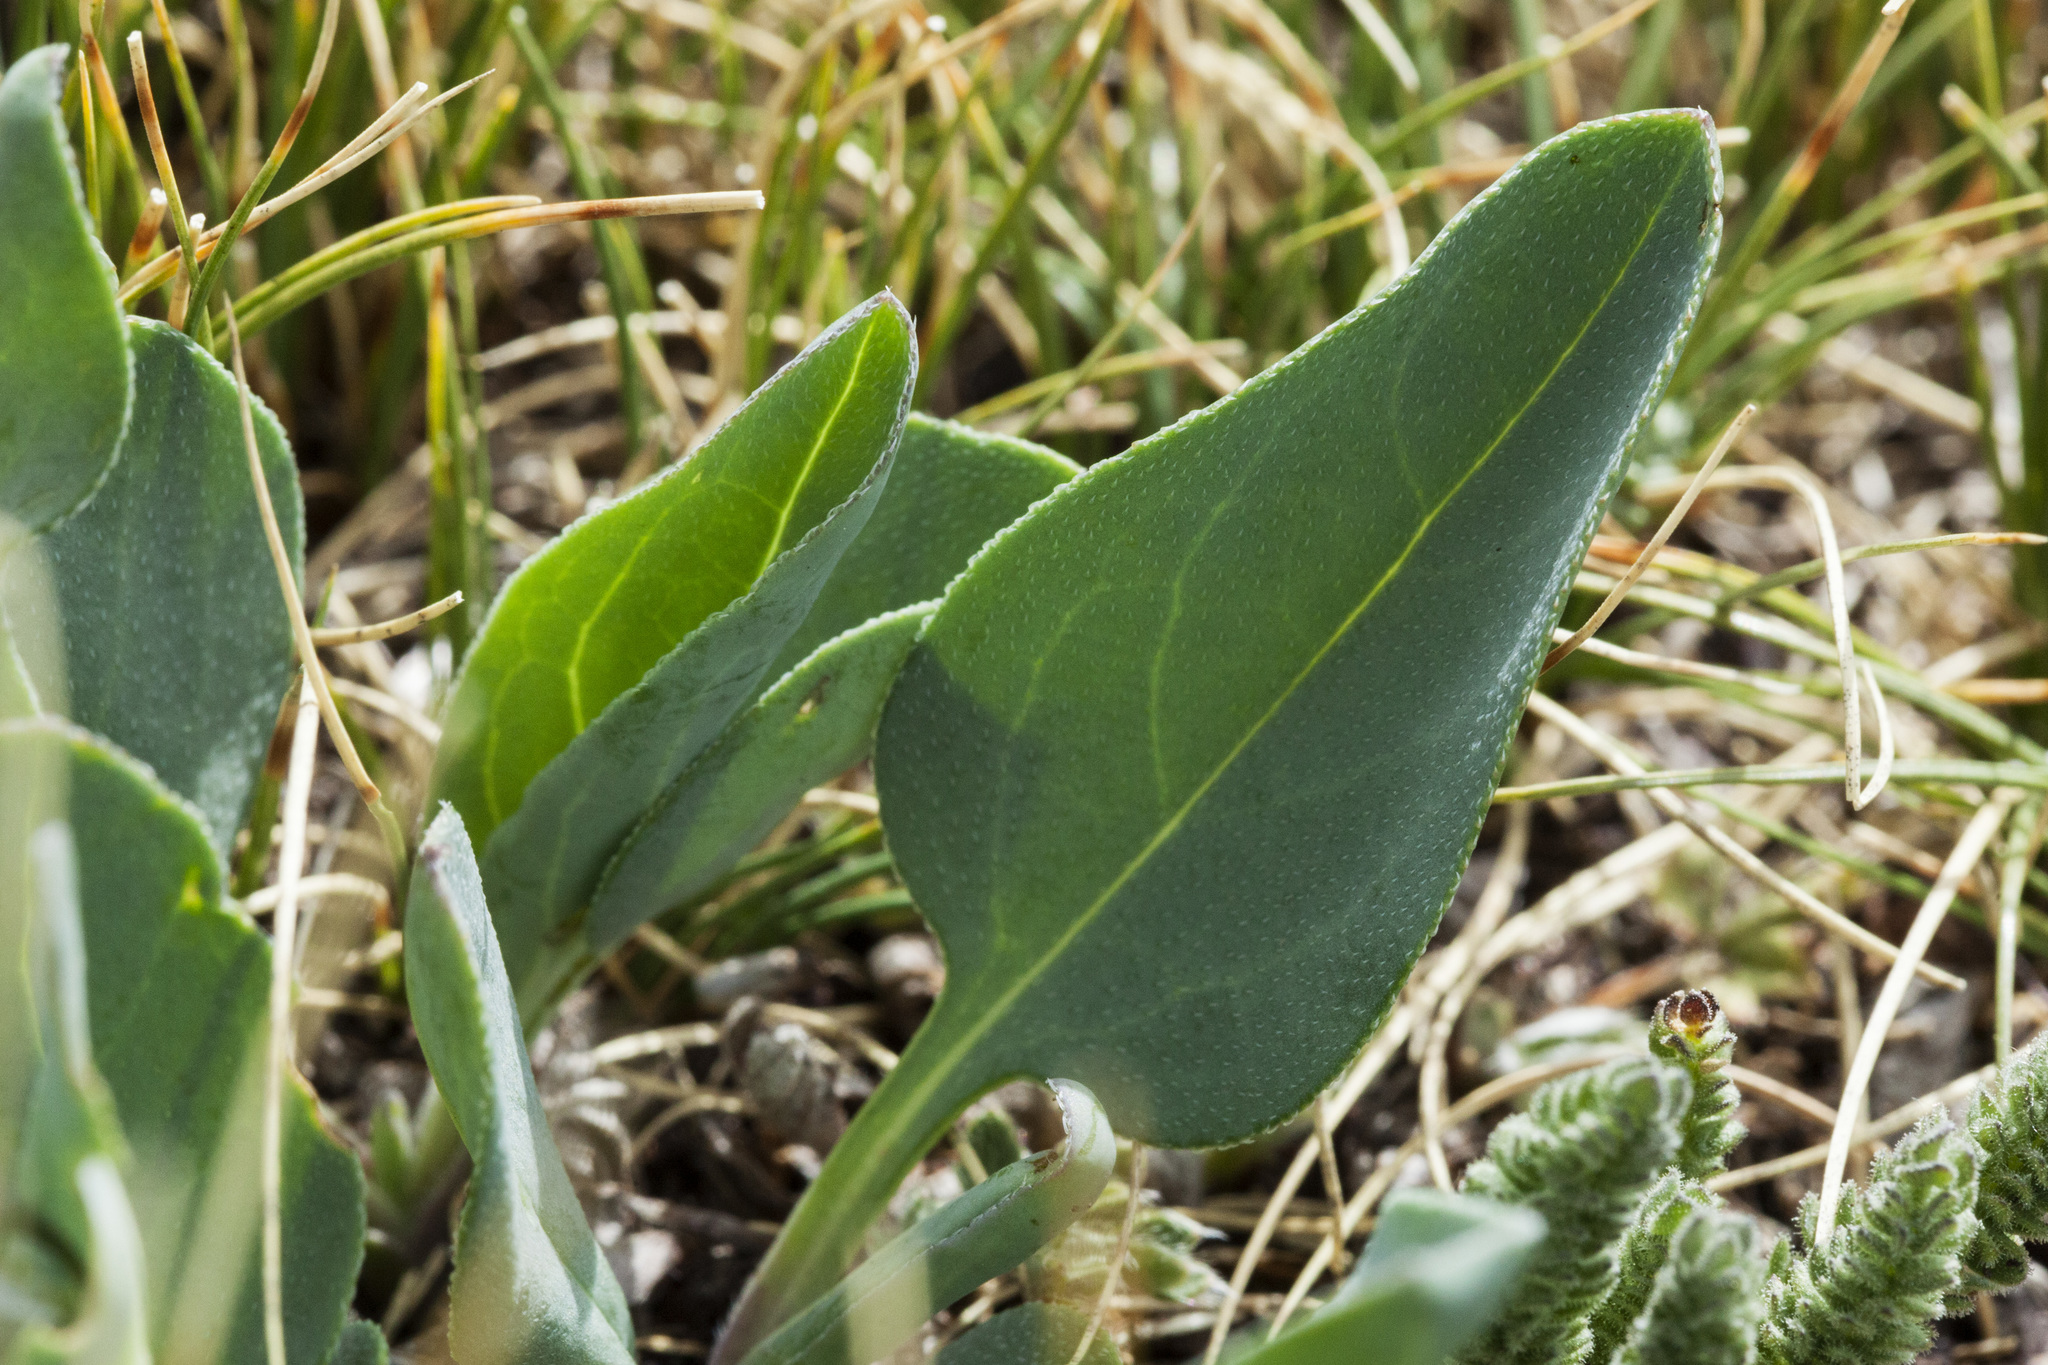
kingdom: Plantae
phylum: Tracheophyta
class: Magnoliopsida
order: Boraginales
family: Boraginaceae
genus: Mertensia
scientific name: Mertensia ovata
